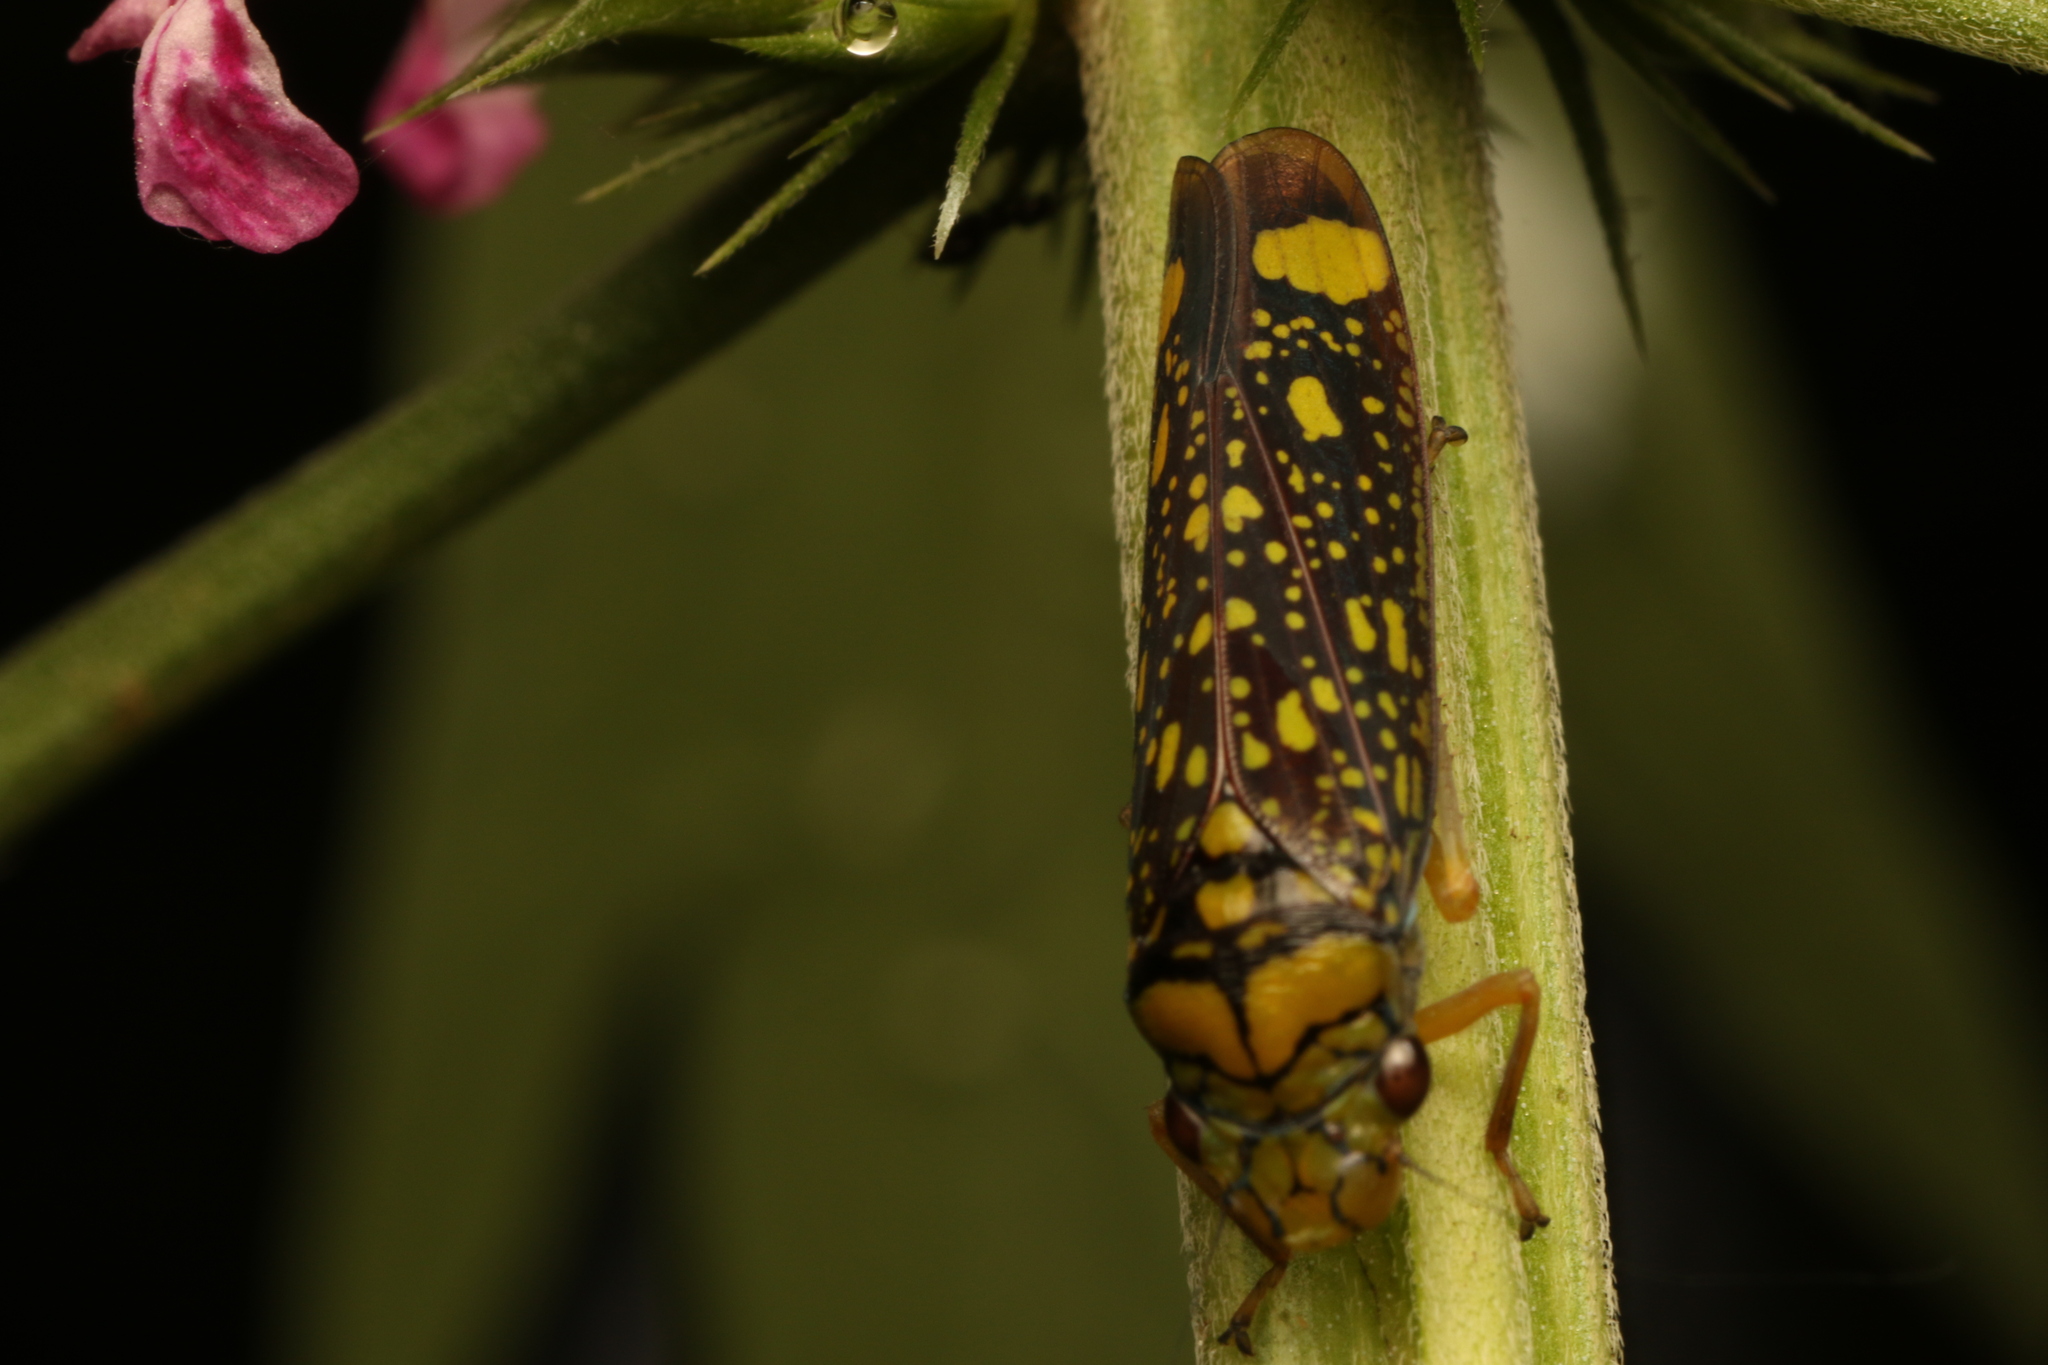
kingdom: Animalia
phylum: Arthropoda
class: Insecta
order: Hemiptera
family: Cicadellidae
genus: Aulacizes
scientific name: Aulacizes conspersa
